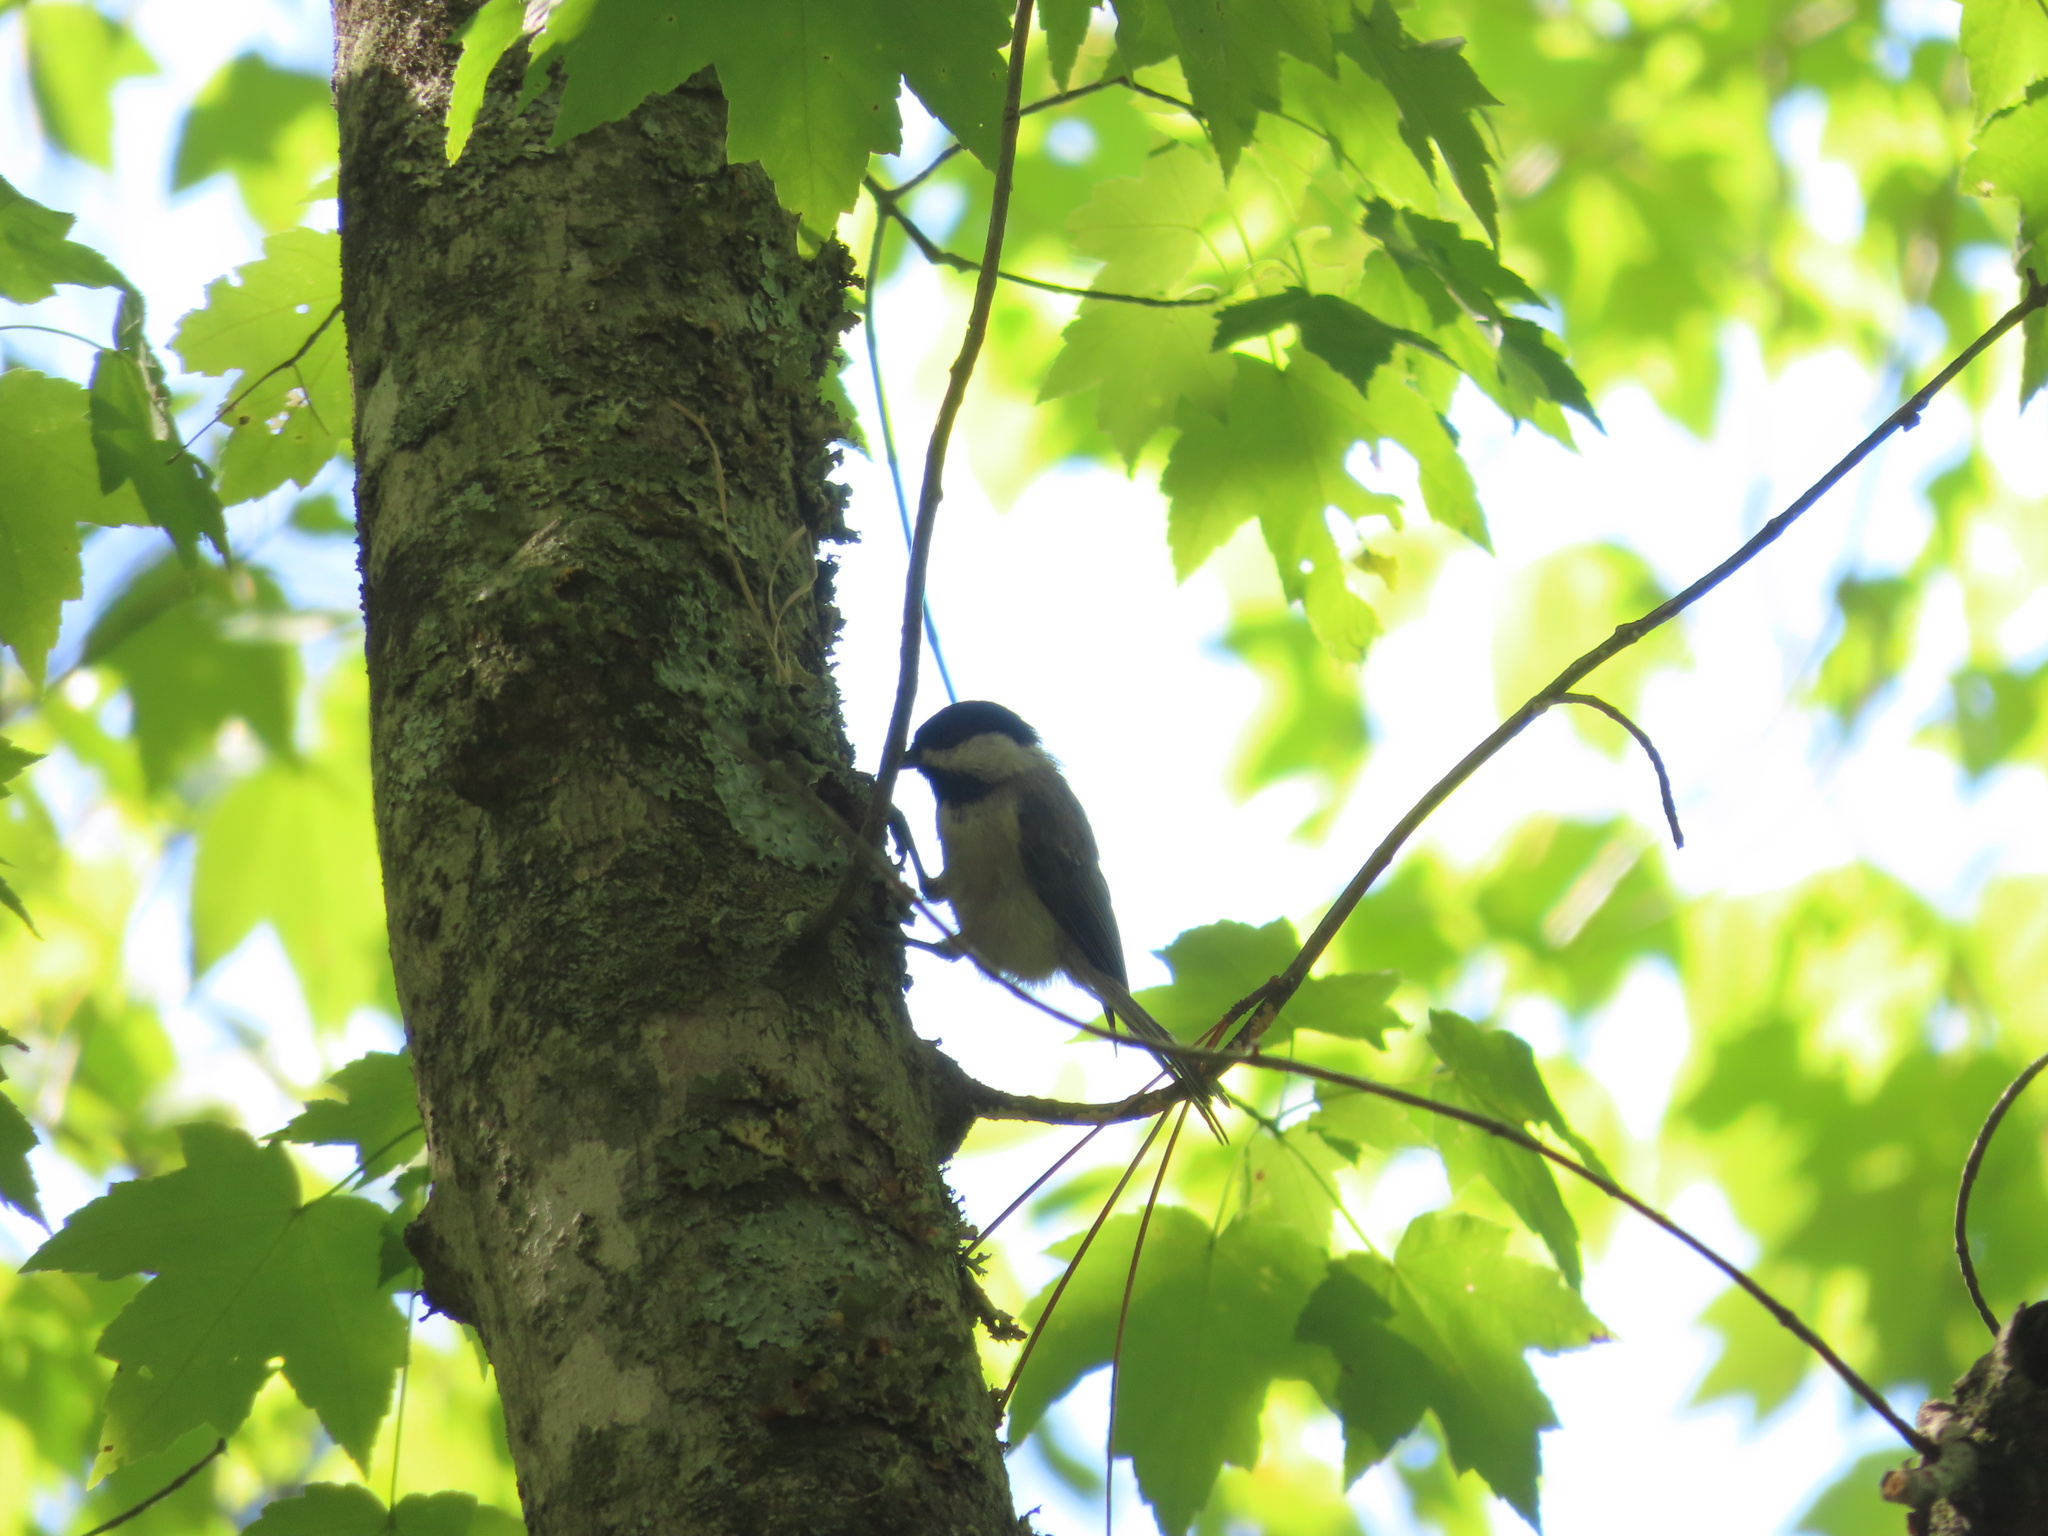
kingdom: Animalia
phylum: Chordata
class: Aves
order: Passeriformes
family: Paridae
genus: Poecile
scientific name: Poecile carolinensis
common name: Carolina chickadee
